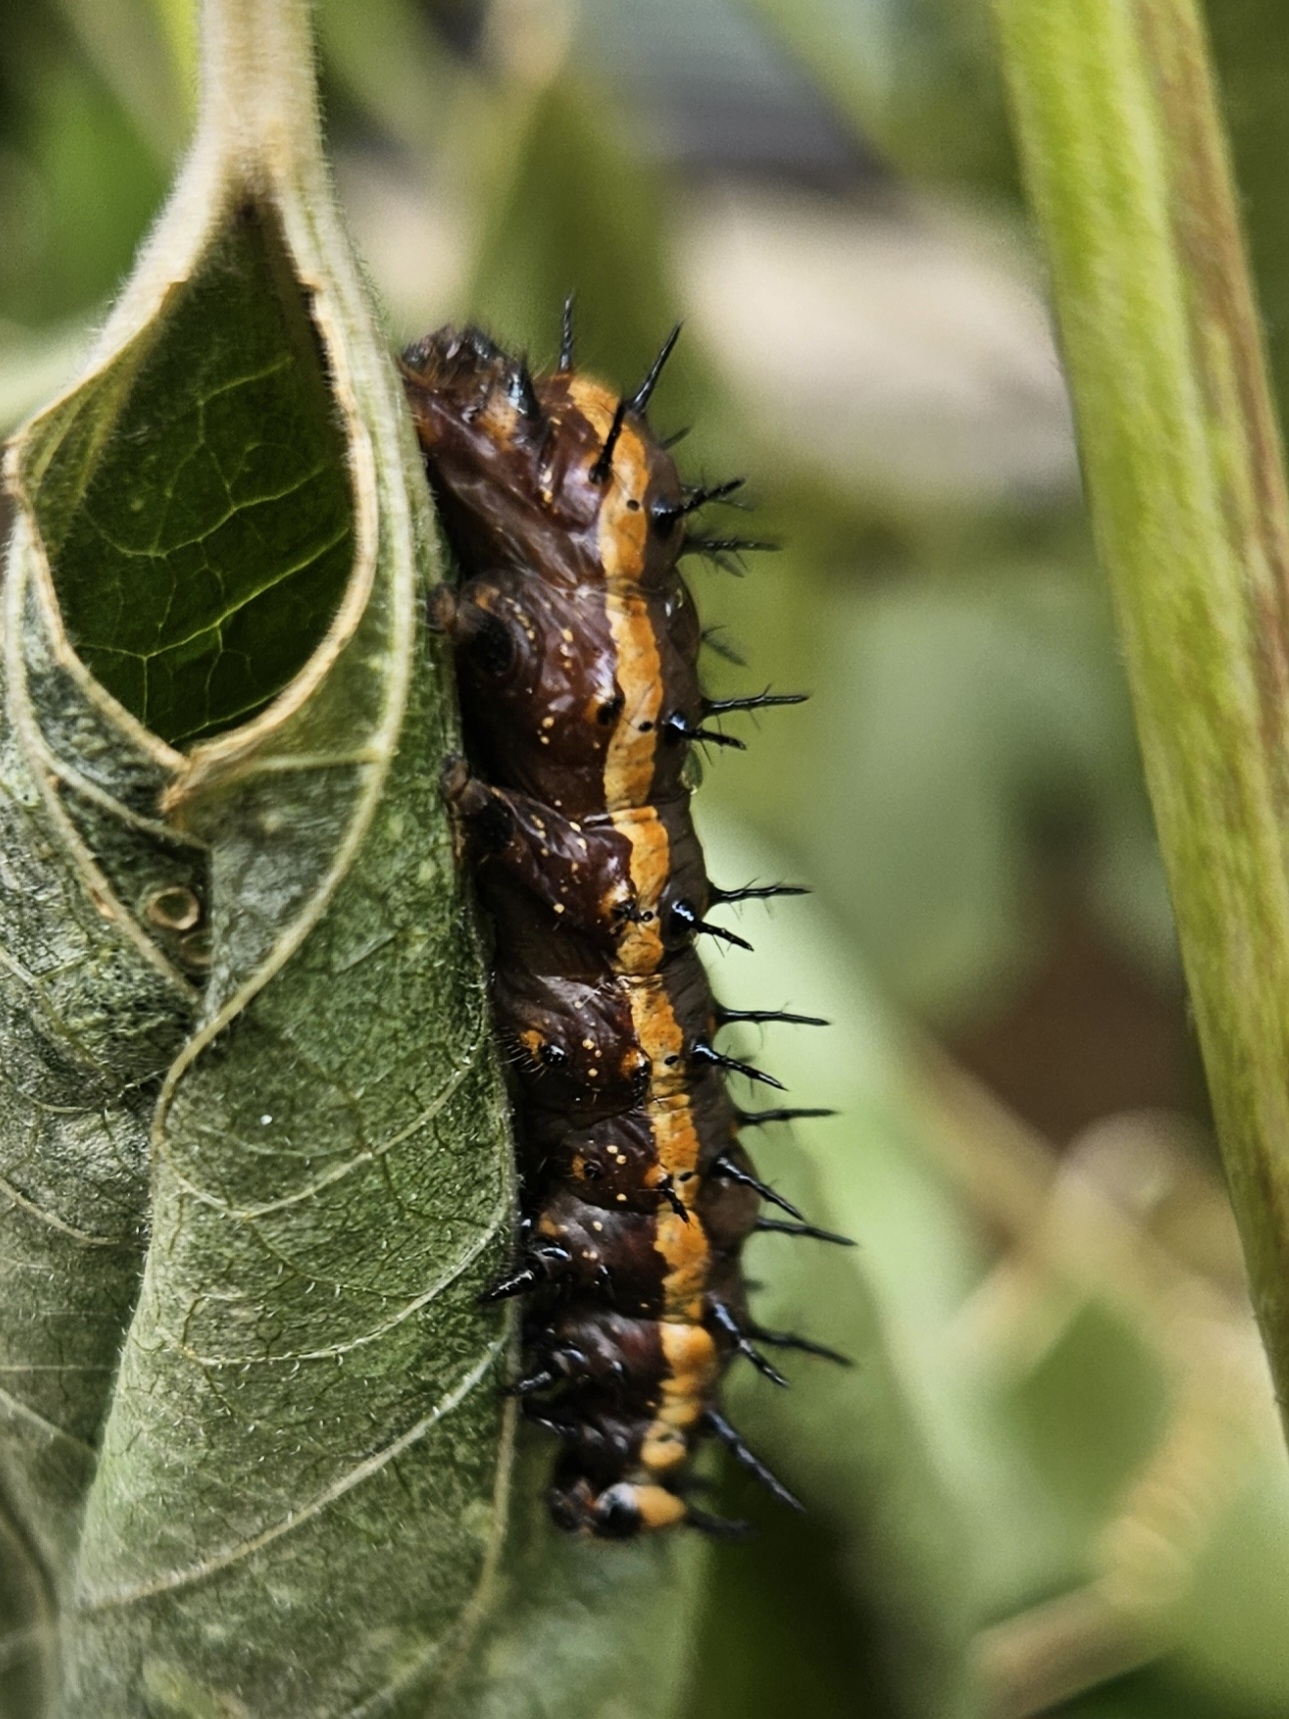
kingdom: Animalia
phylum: Arthropoda
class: Insecta
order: Lepidoptera
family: Nymphalidae
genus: Dione
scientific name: Dione vanillae
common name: Gulf fritillary
